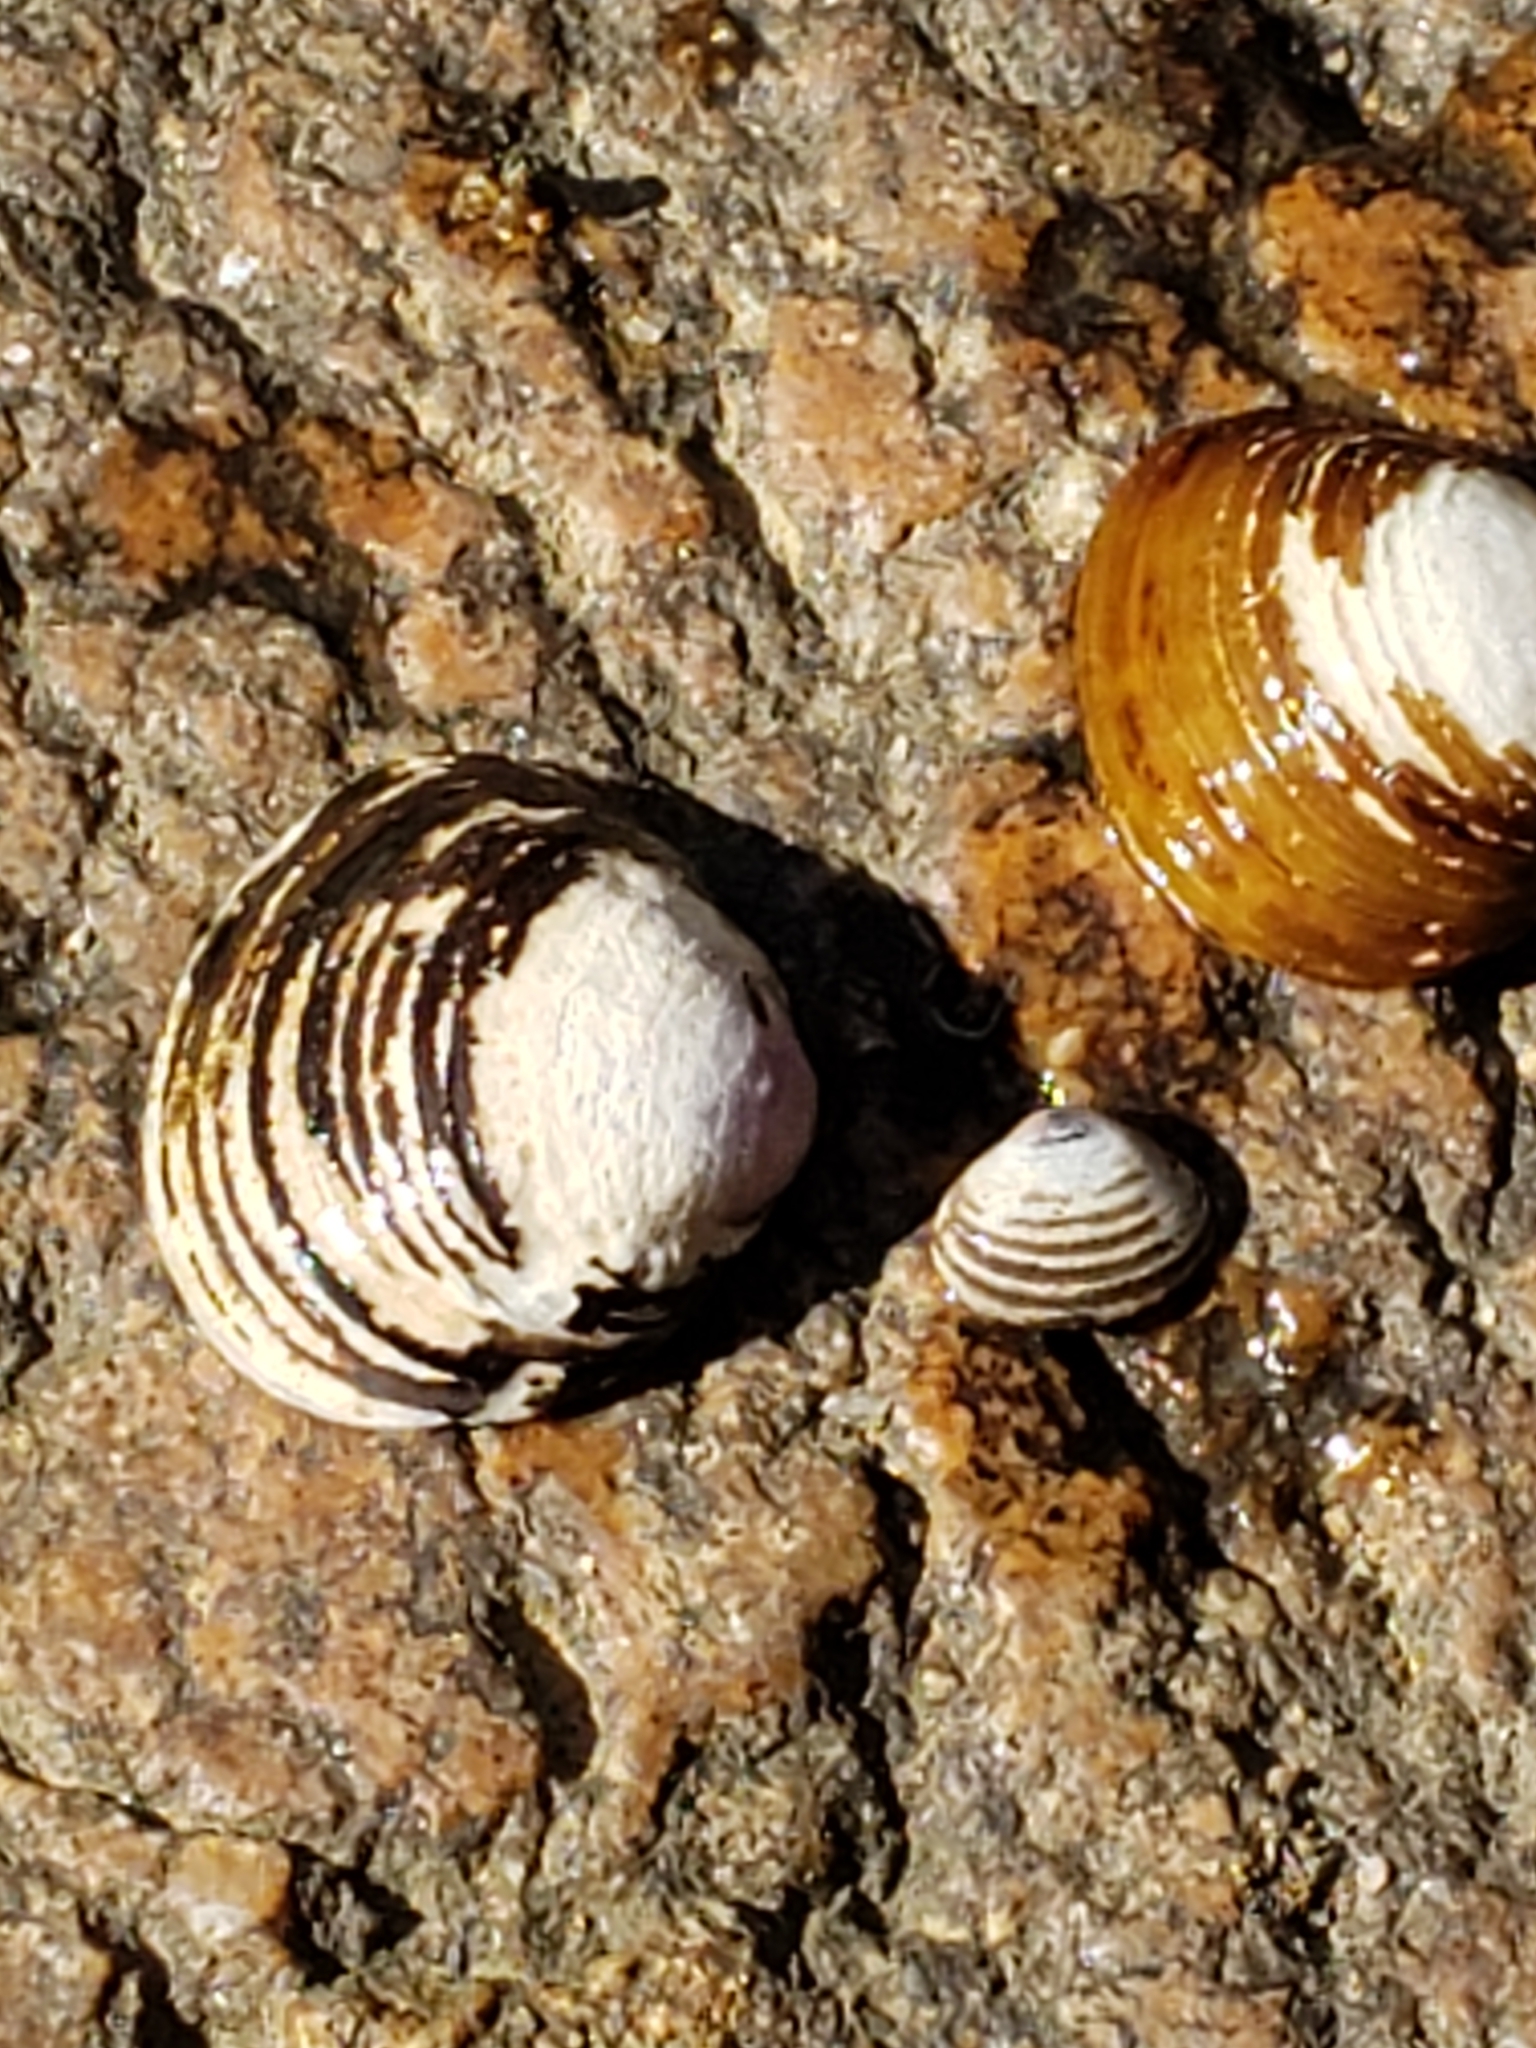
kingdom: Animalia
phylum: Mollusca
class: Bivalvia
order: Venerida
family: Cyrenidae
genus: Corbicula
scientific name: Corbicula fluminea
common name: Asian clam
